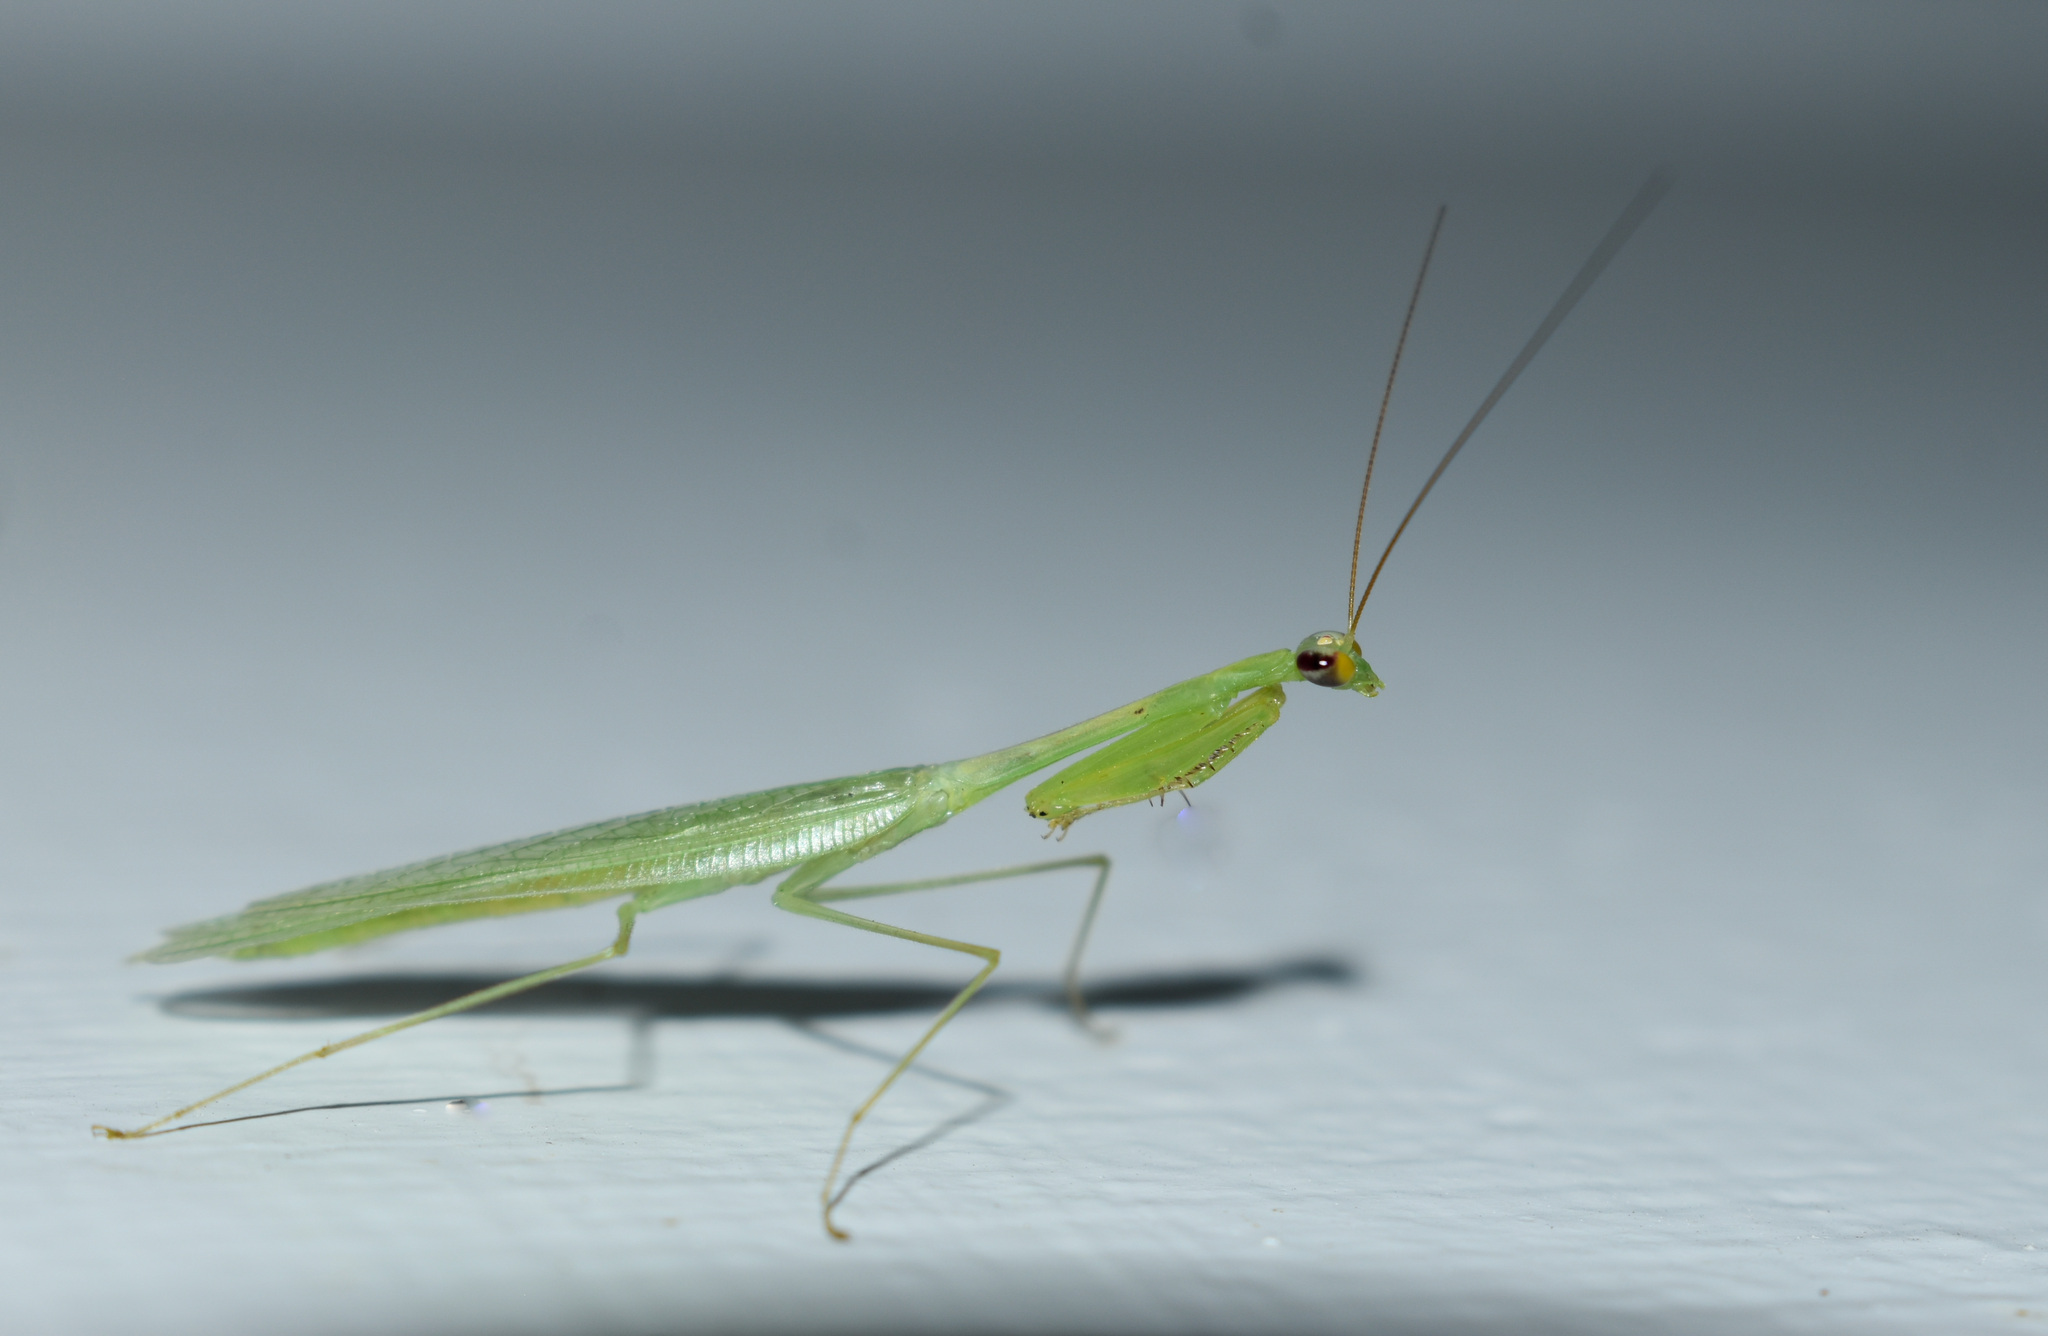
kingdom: Animalia
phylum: Arthropoda
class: Insecta
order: Mantodea
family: Leptomantellidae
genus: Leptomantella
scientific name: Leptomantella parva
